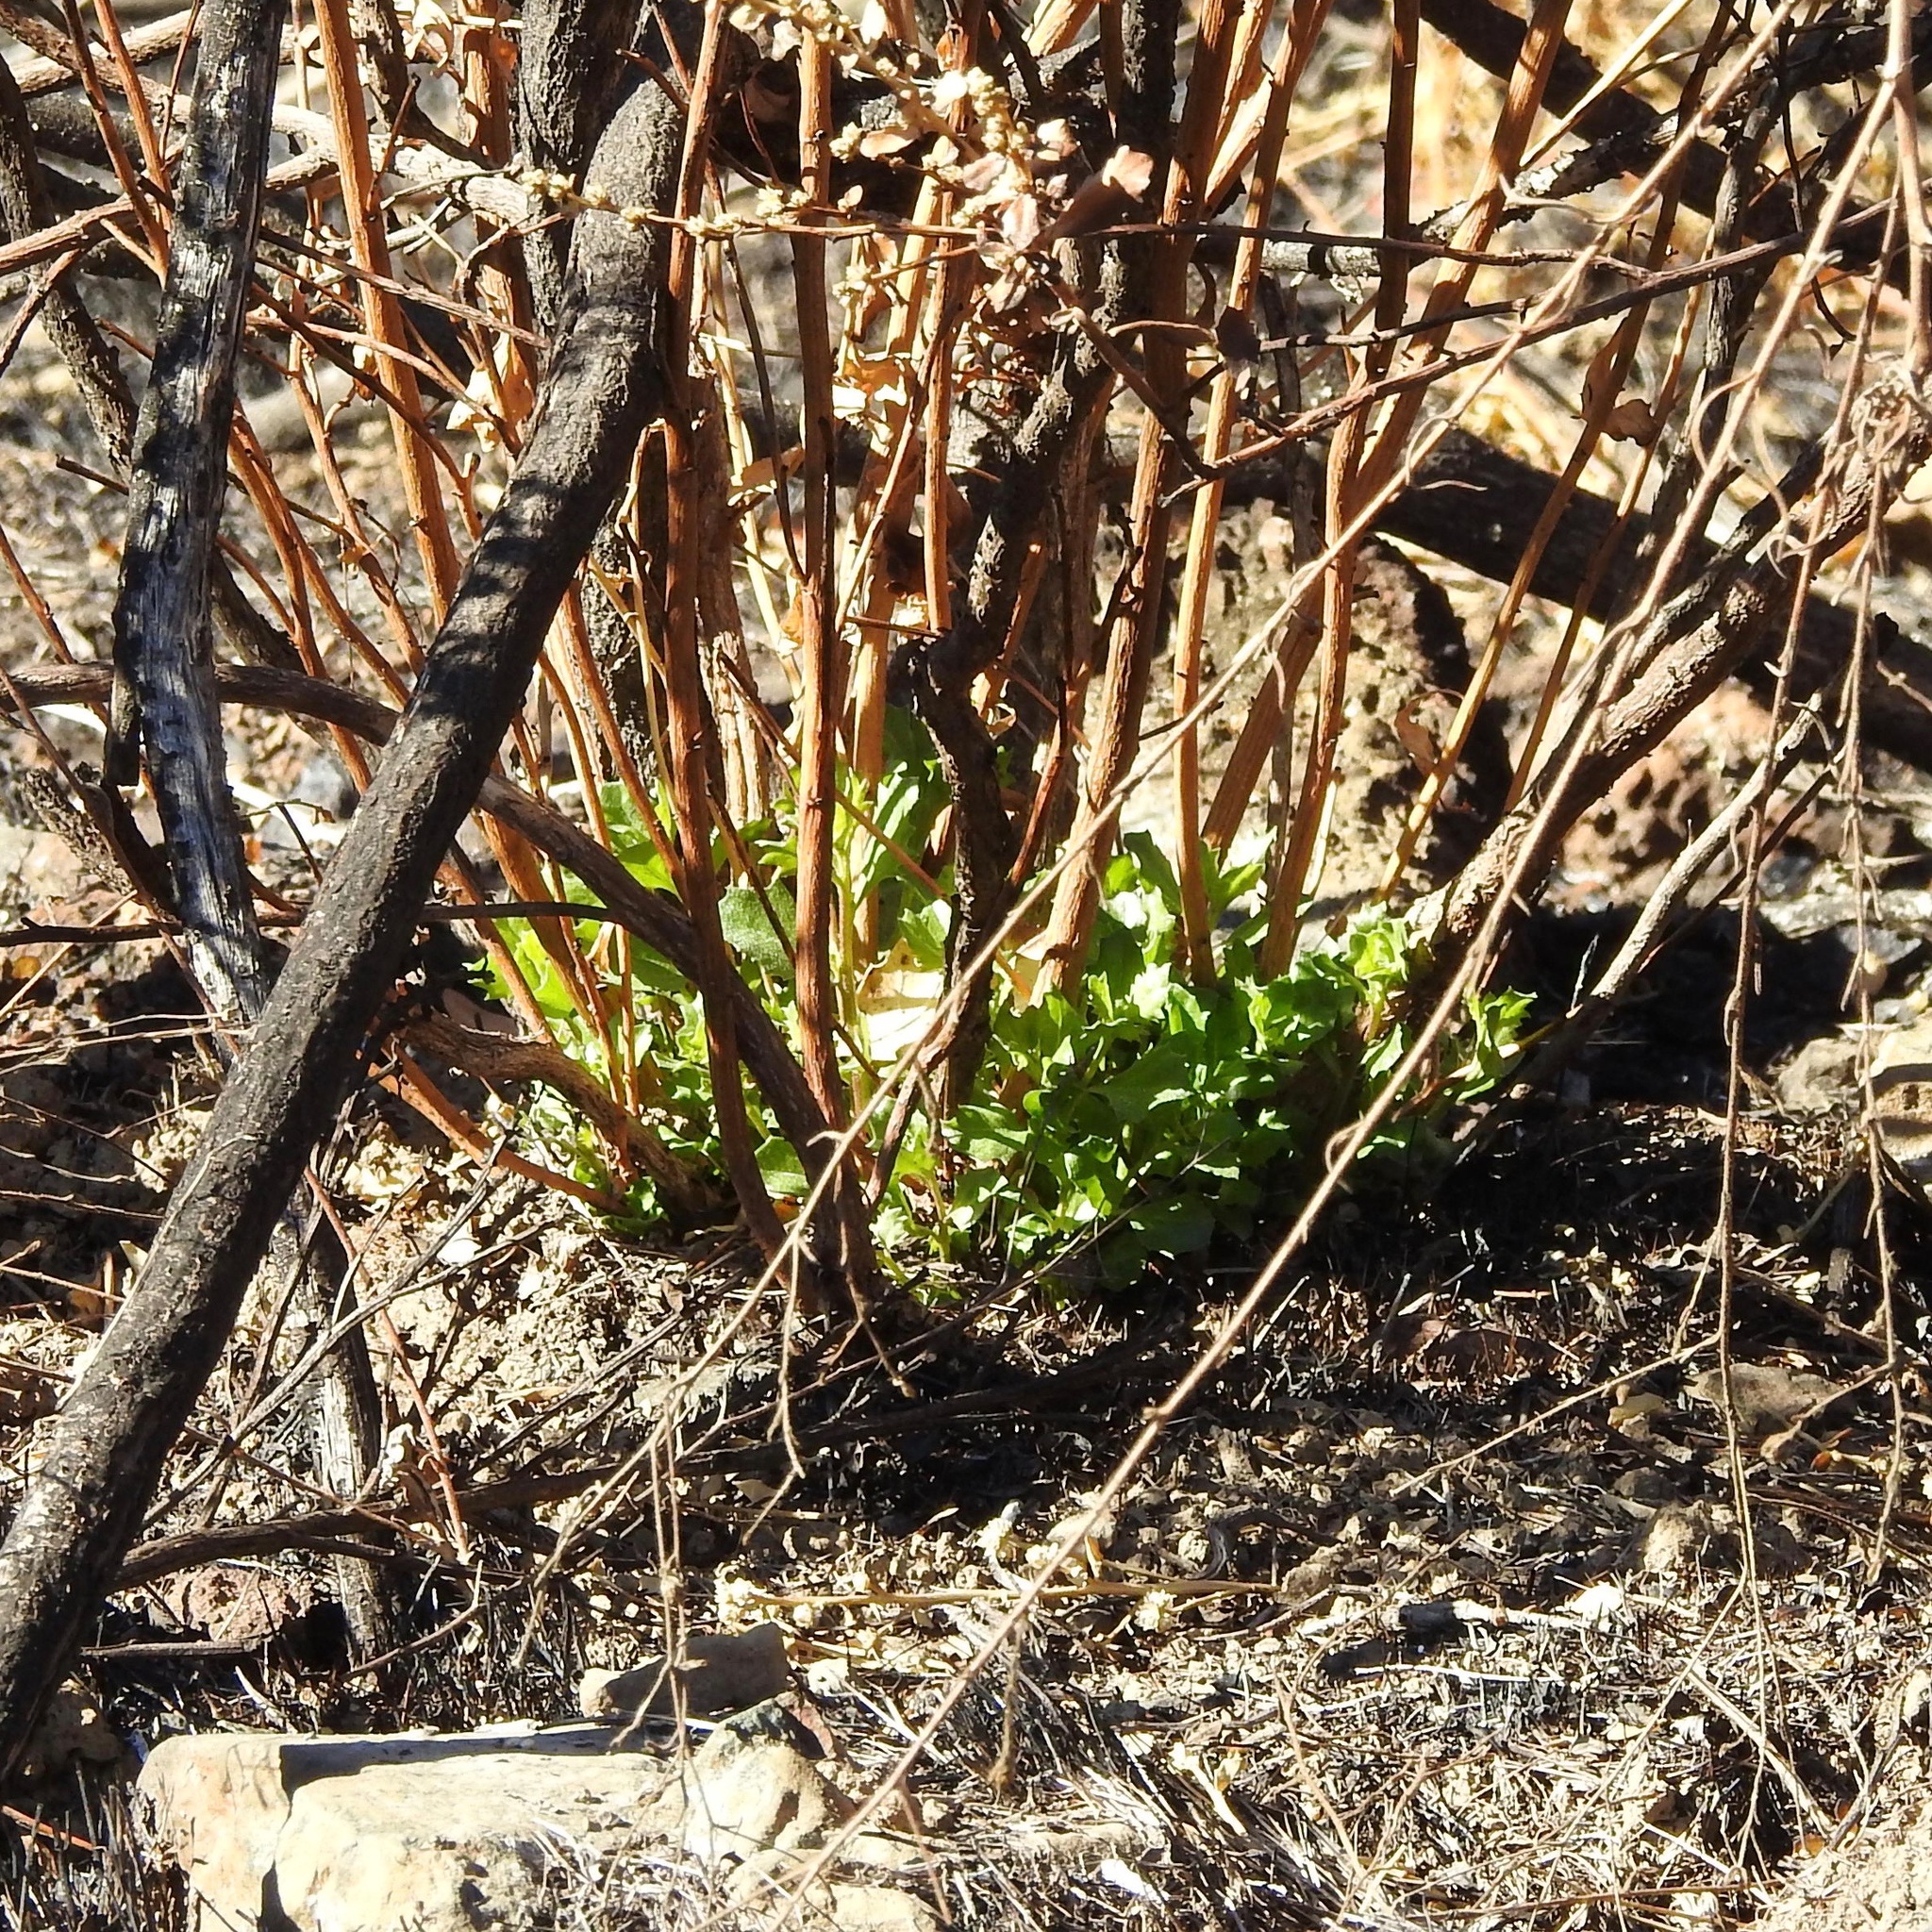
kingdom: Plantae
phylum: Tracheophyta
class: Magnoliopsida
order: Asterales
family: Asteraceae
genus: Baccharis
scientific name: Baccharis pilularis
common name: Coyotebrush
